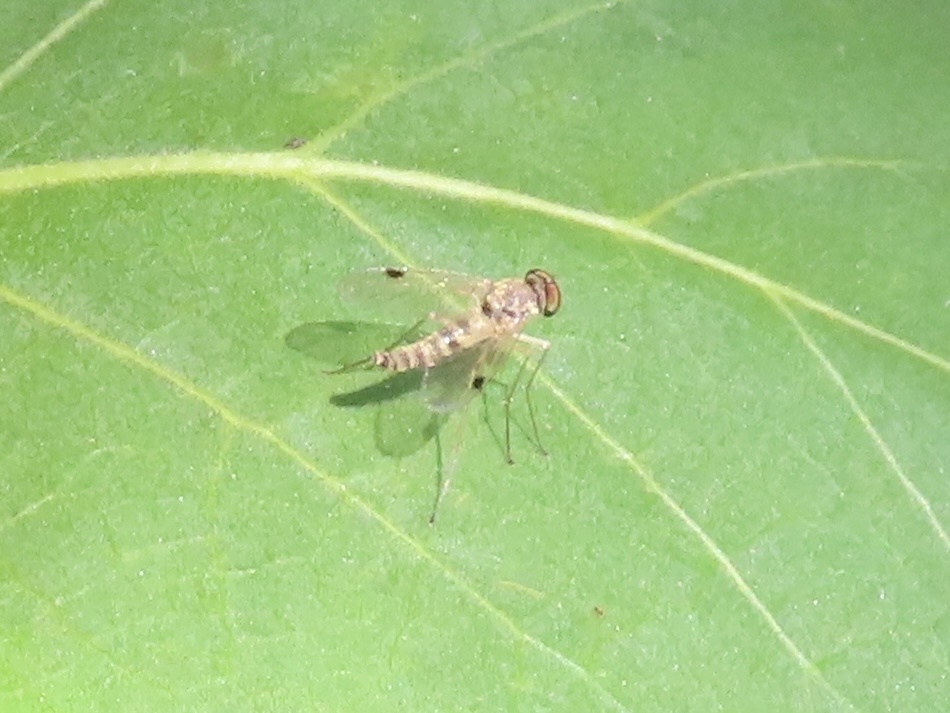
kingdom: Animalia
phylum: Arthropoda
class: Insecta
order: Diptera
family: Rhagionidae
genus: Chrysopilus
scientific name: Chrysopilus modestus
